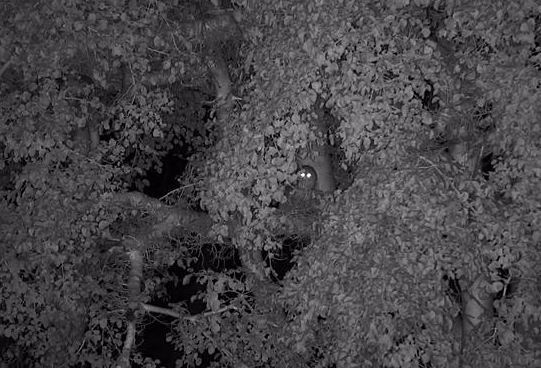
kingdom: Animalia
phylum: Chordata
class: Aves
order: Strigiformes
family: Strigidae
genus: Scotopelia
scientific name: Scotopelia peli
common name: Pel's fishing owl
